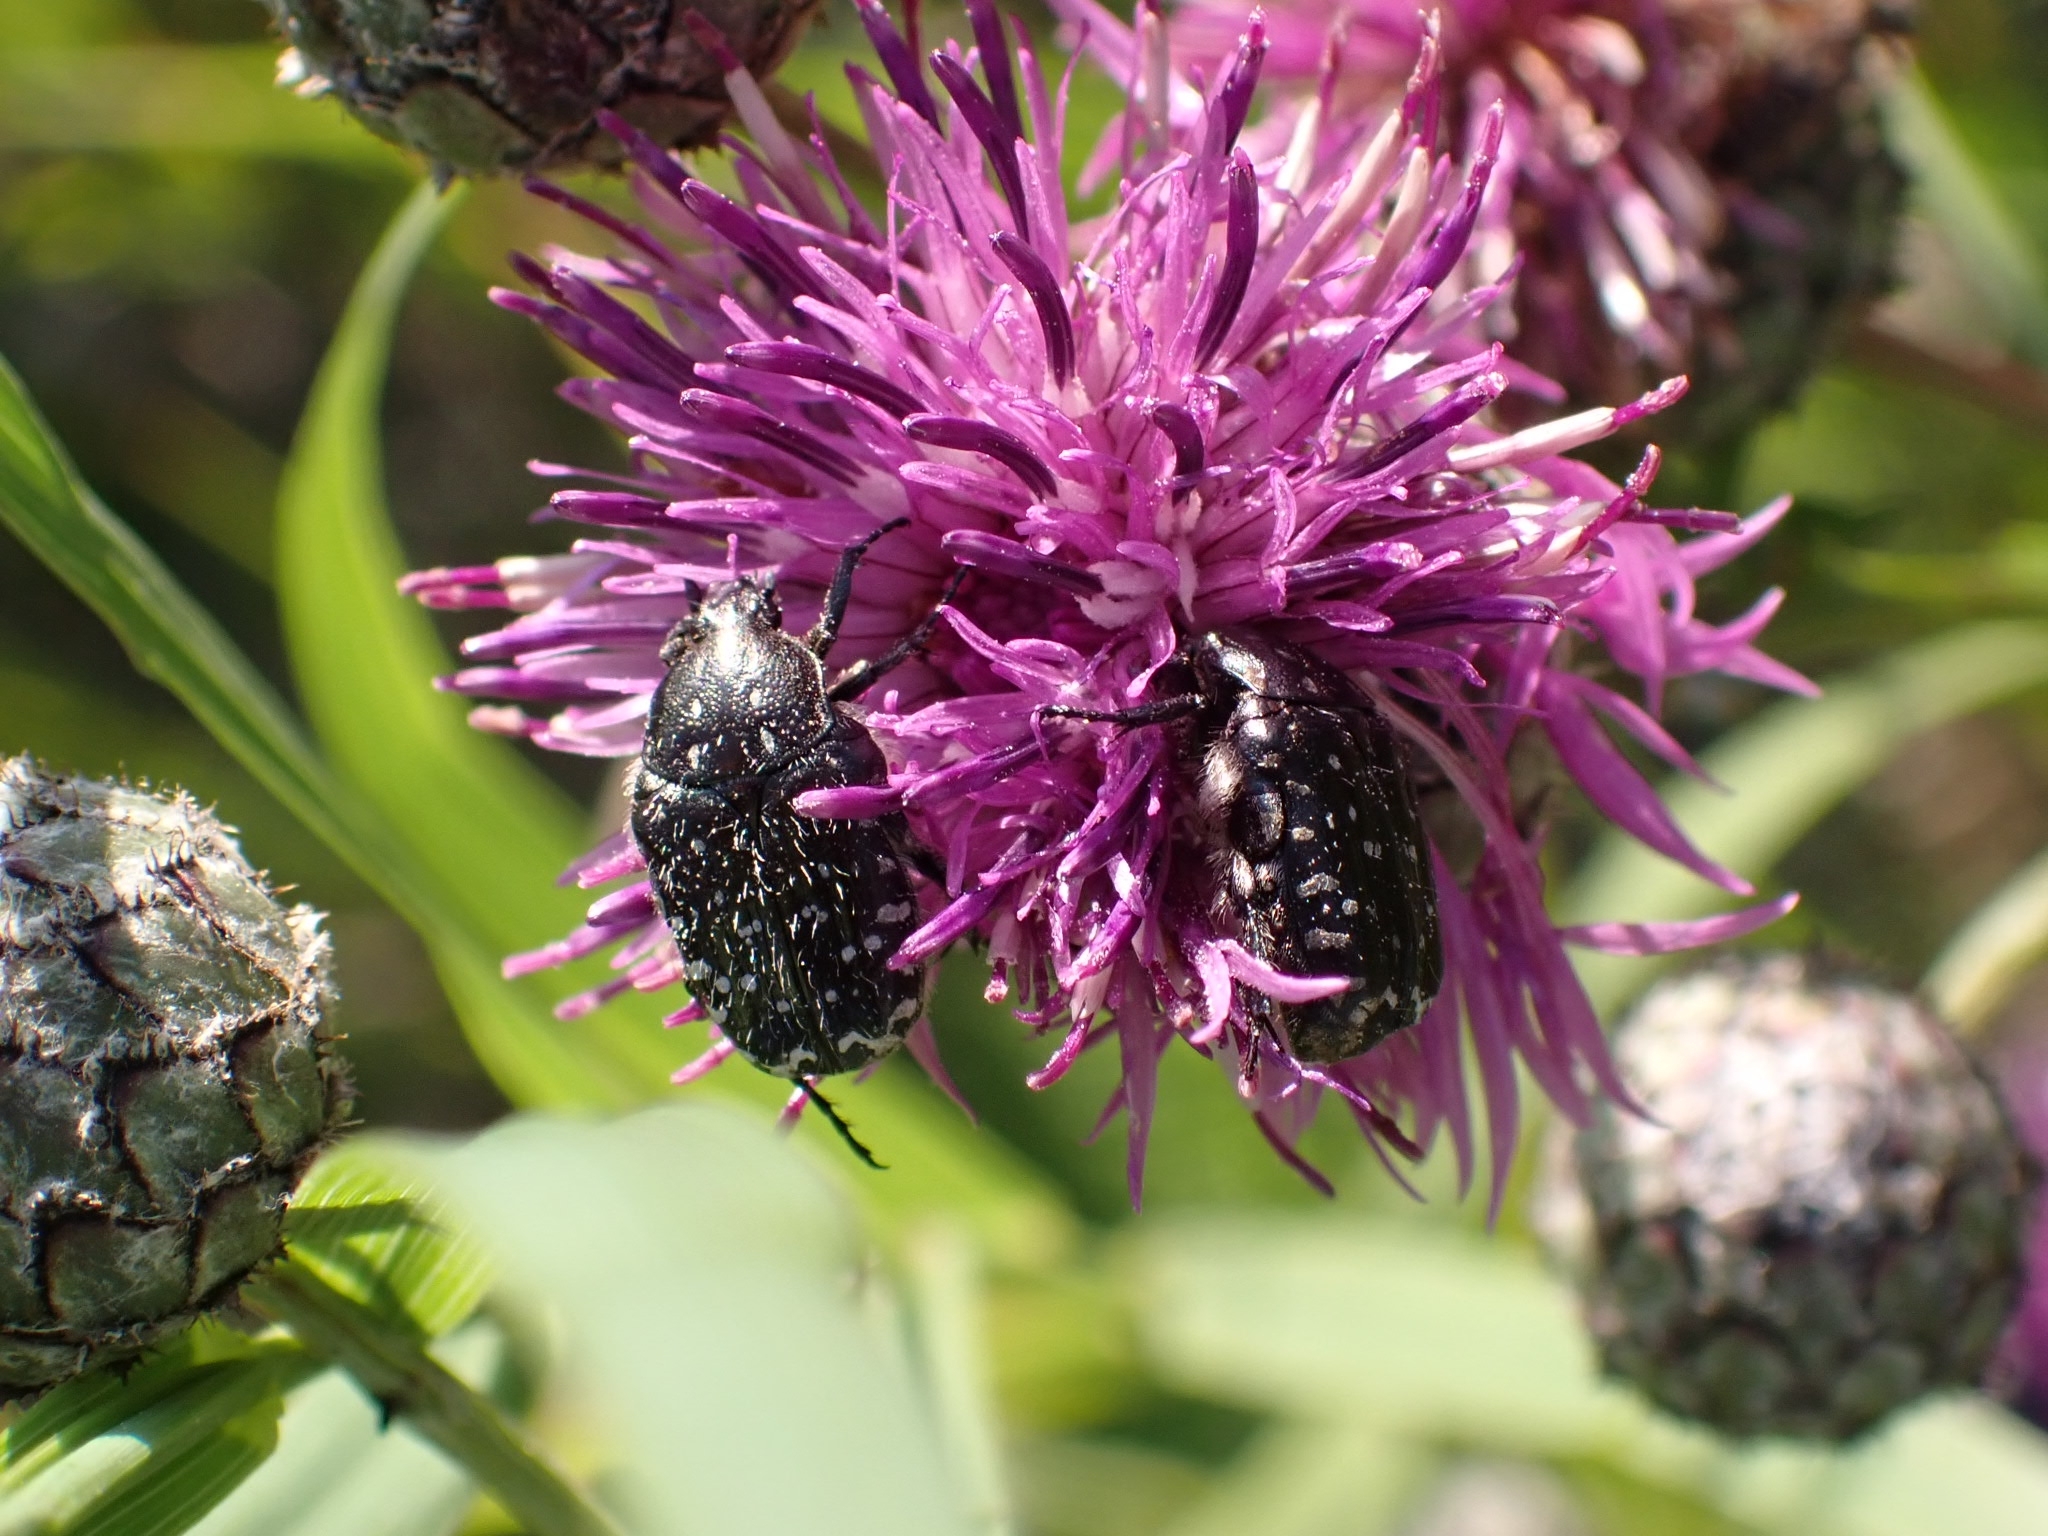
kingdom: Animalia
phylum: Arthropoda
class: Insecta
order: Coleoptera
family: Scarabaeidae
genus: Oxythyrea
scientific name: Oxythyrea funesta
